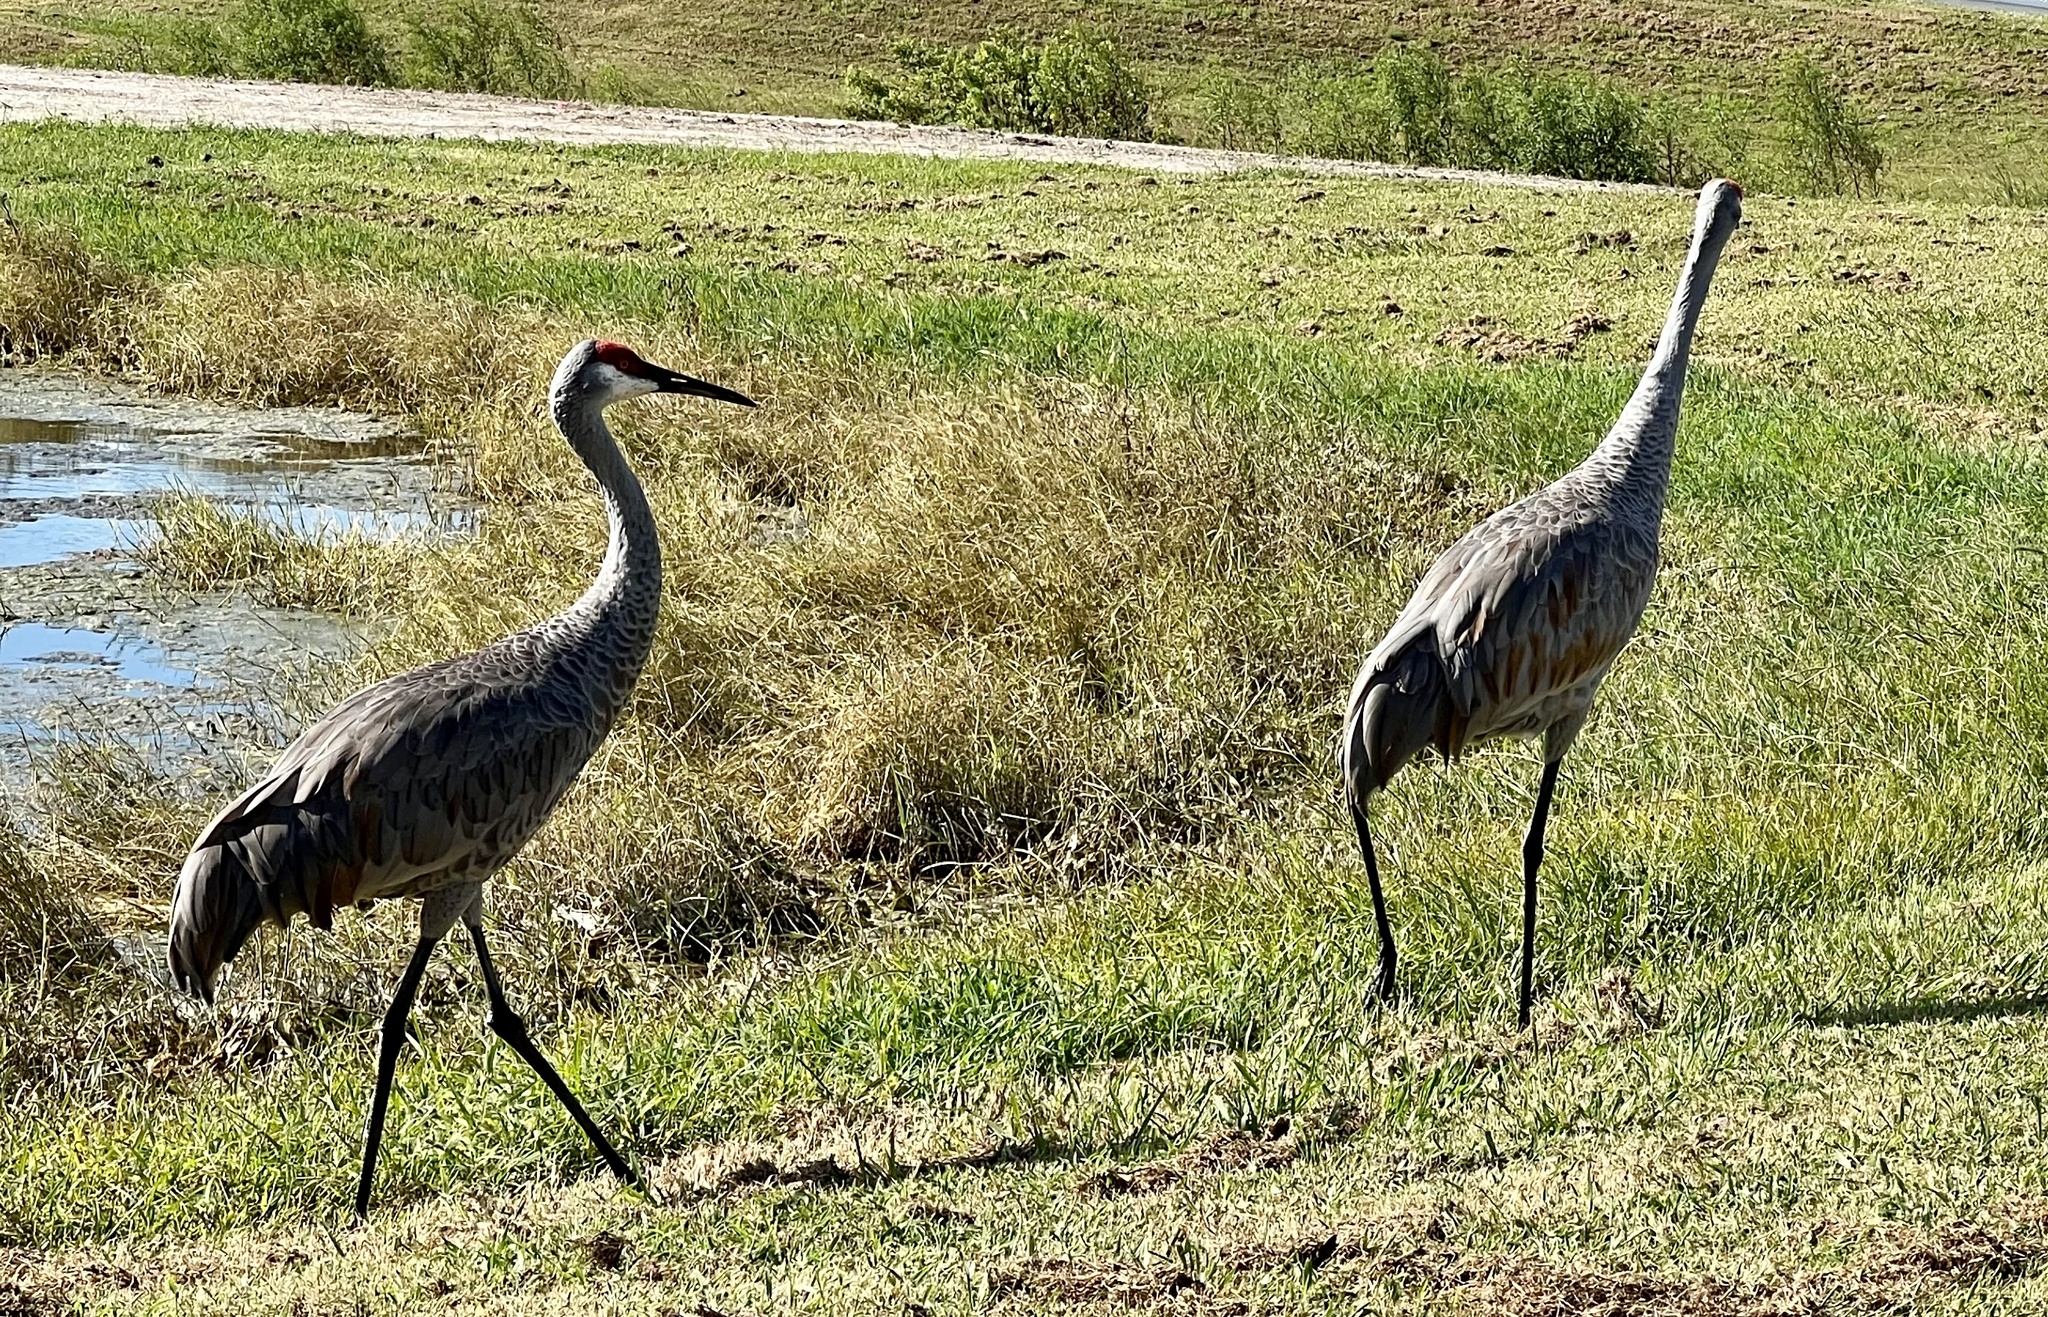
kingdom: Animalia
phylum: Chordata
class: Aves
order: Gruiformes
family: Gruidae
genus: Grus
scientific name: Grus canadensis
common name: Sandhill crane
